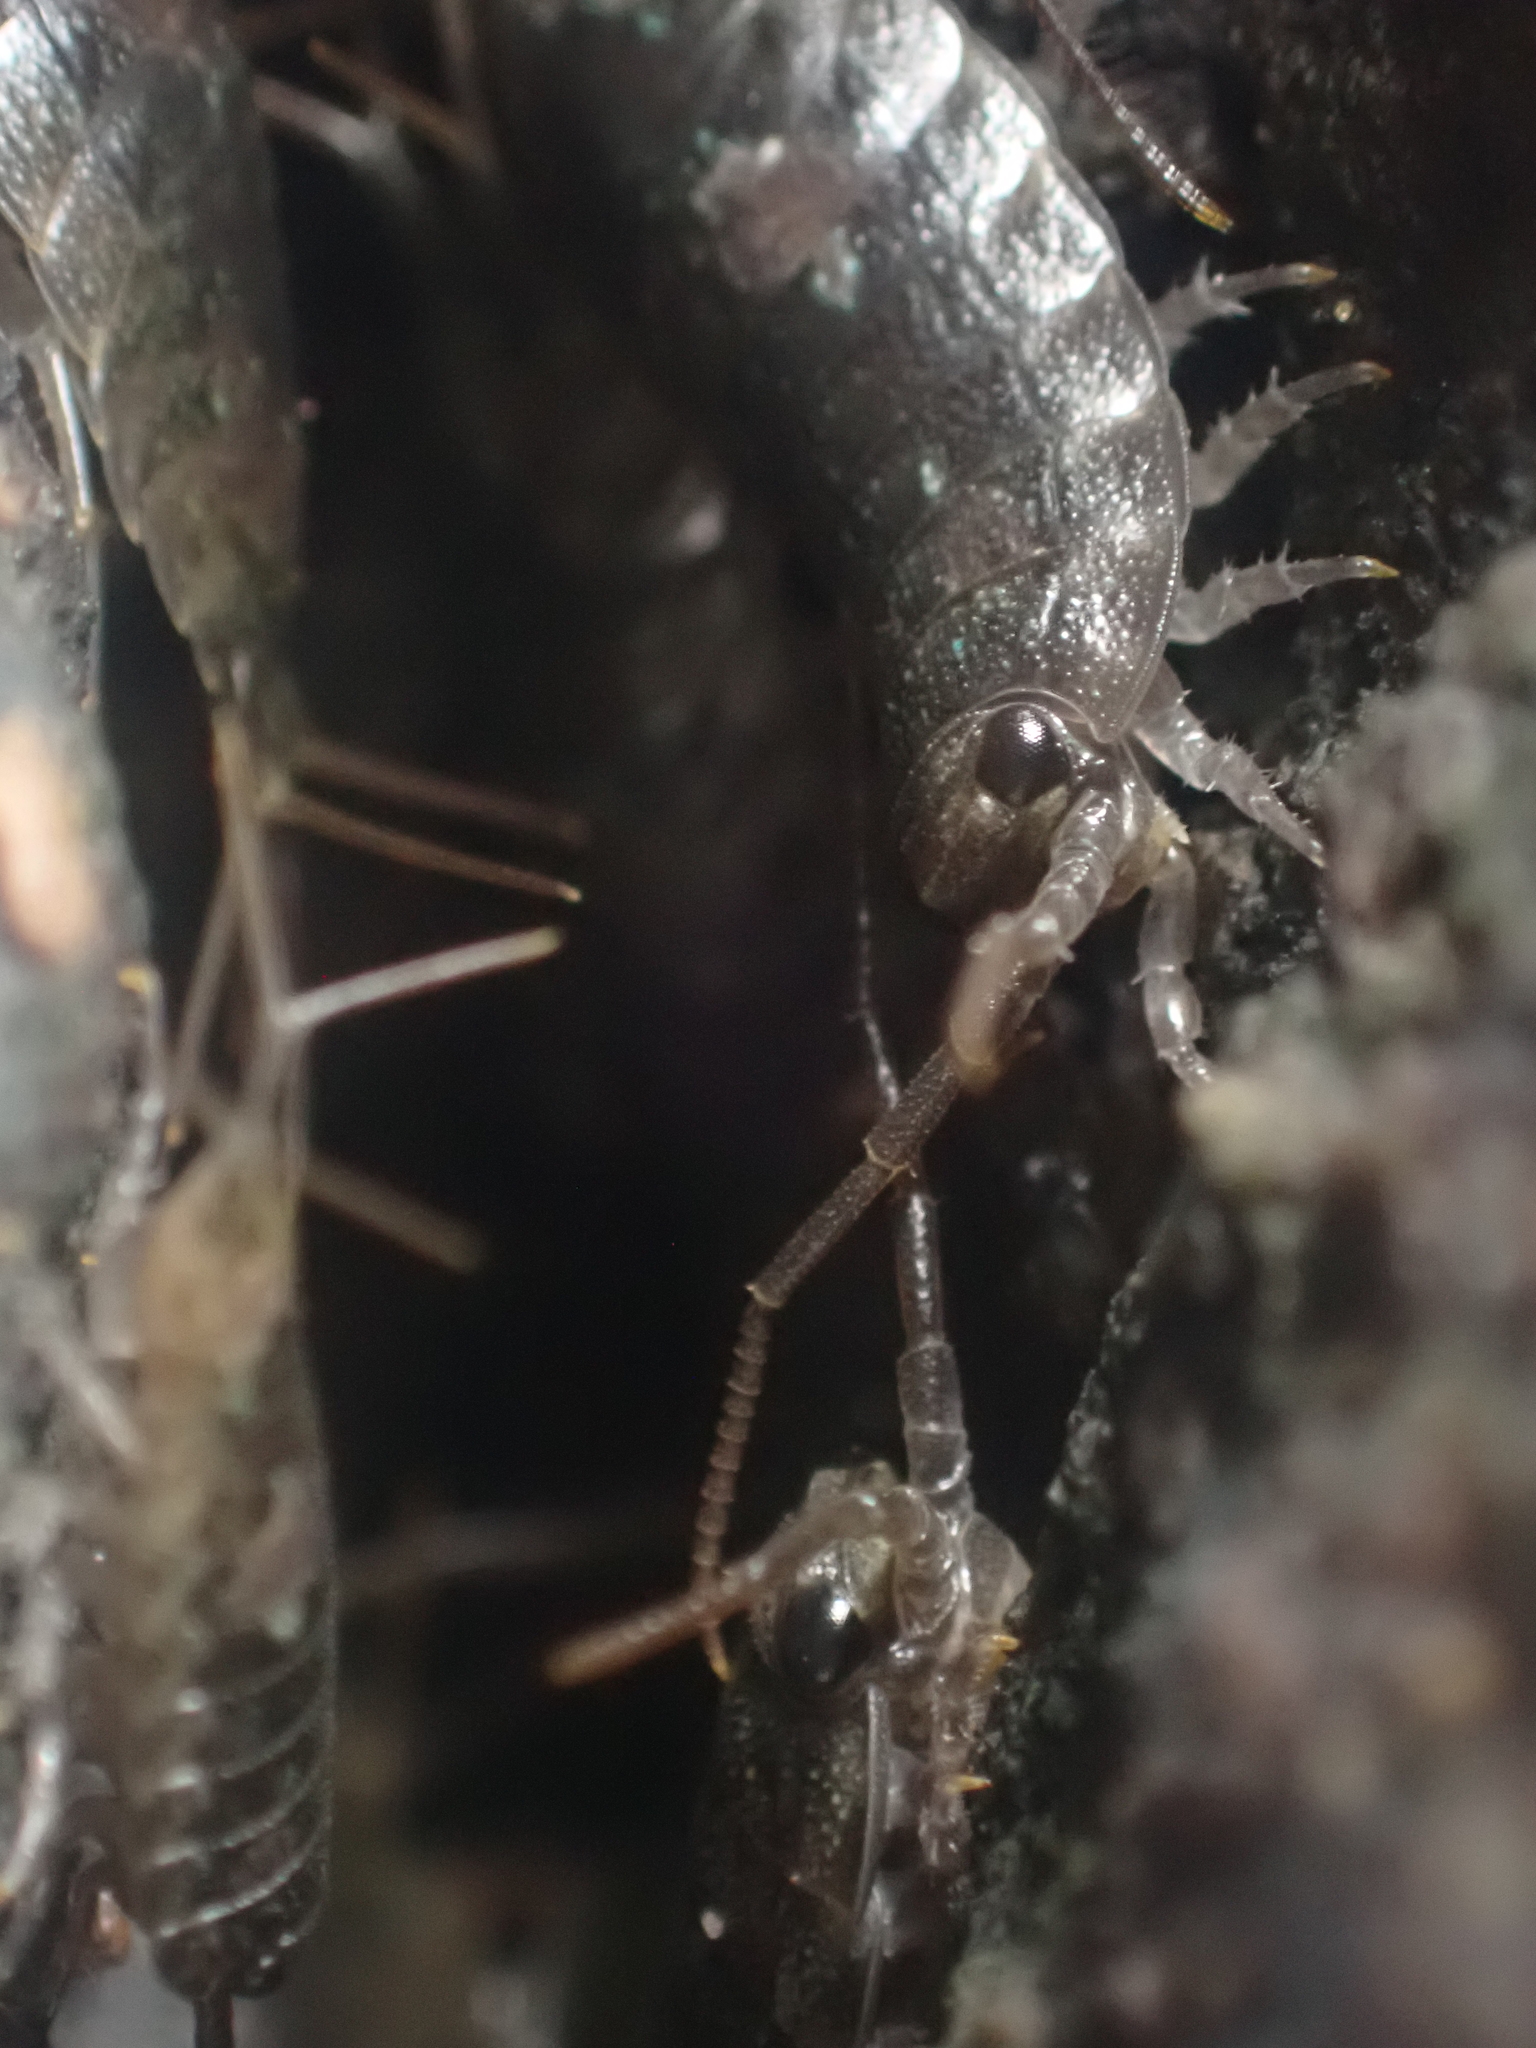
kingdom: Animalia
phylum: Arthropoda
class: Malacostraca
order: Isopoda
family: Ligiidae
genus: Ligia
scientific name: Ligia oceanica
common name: Sea slater
